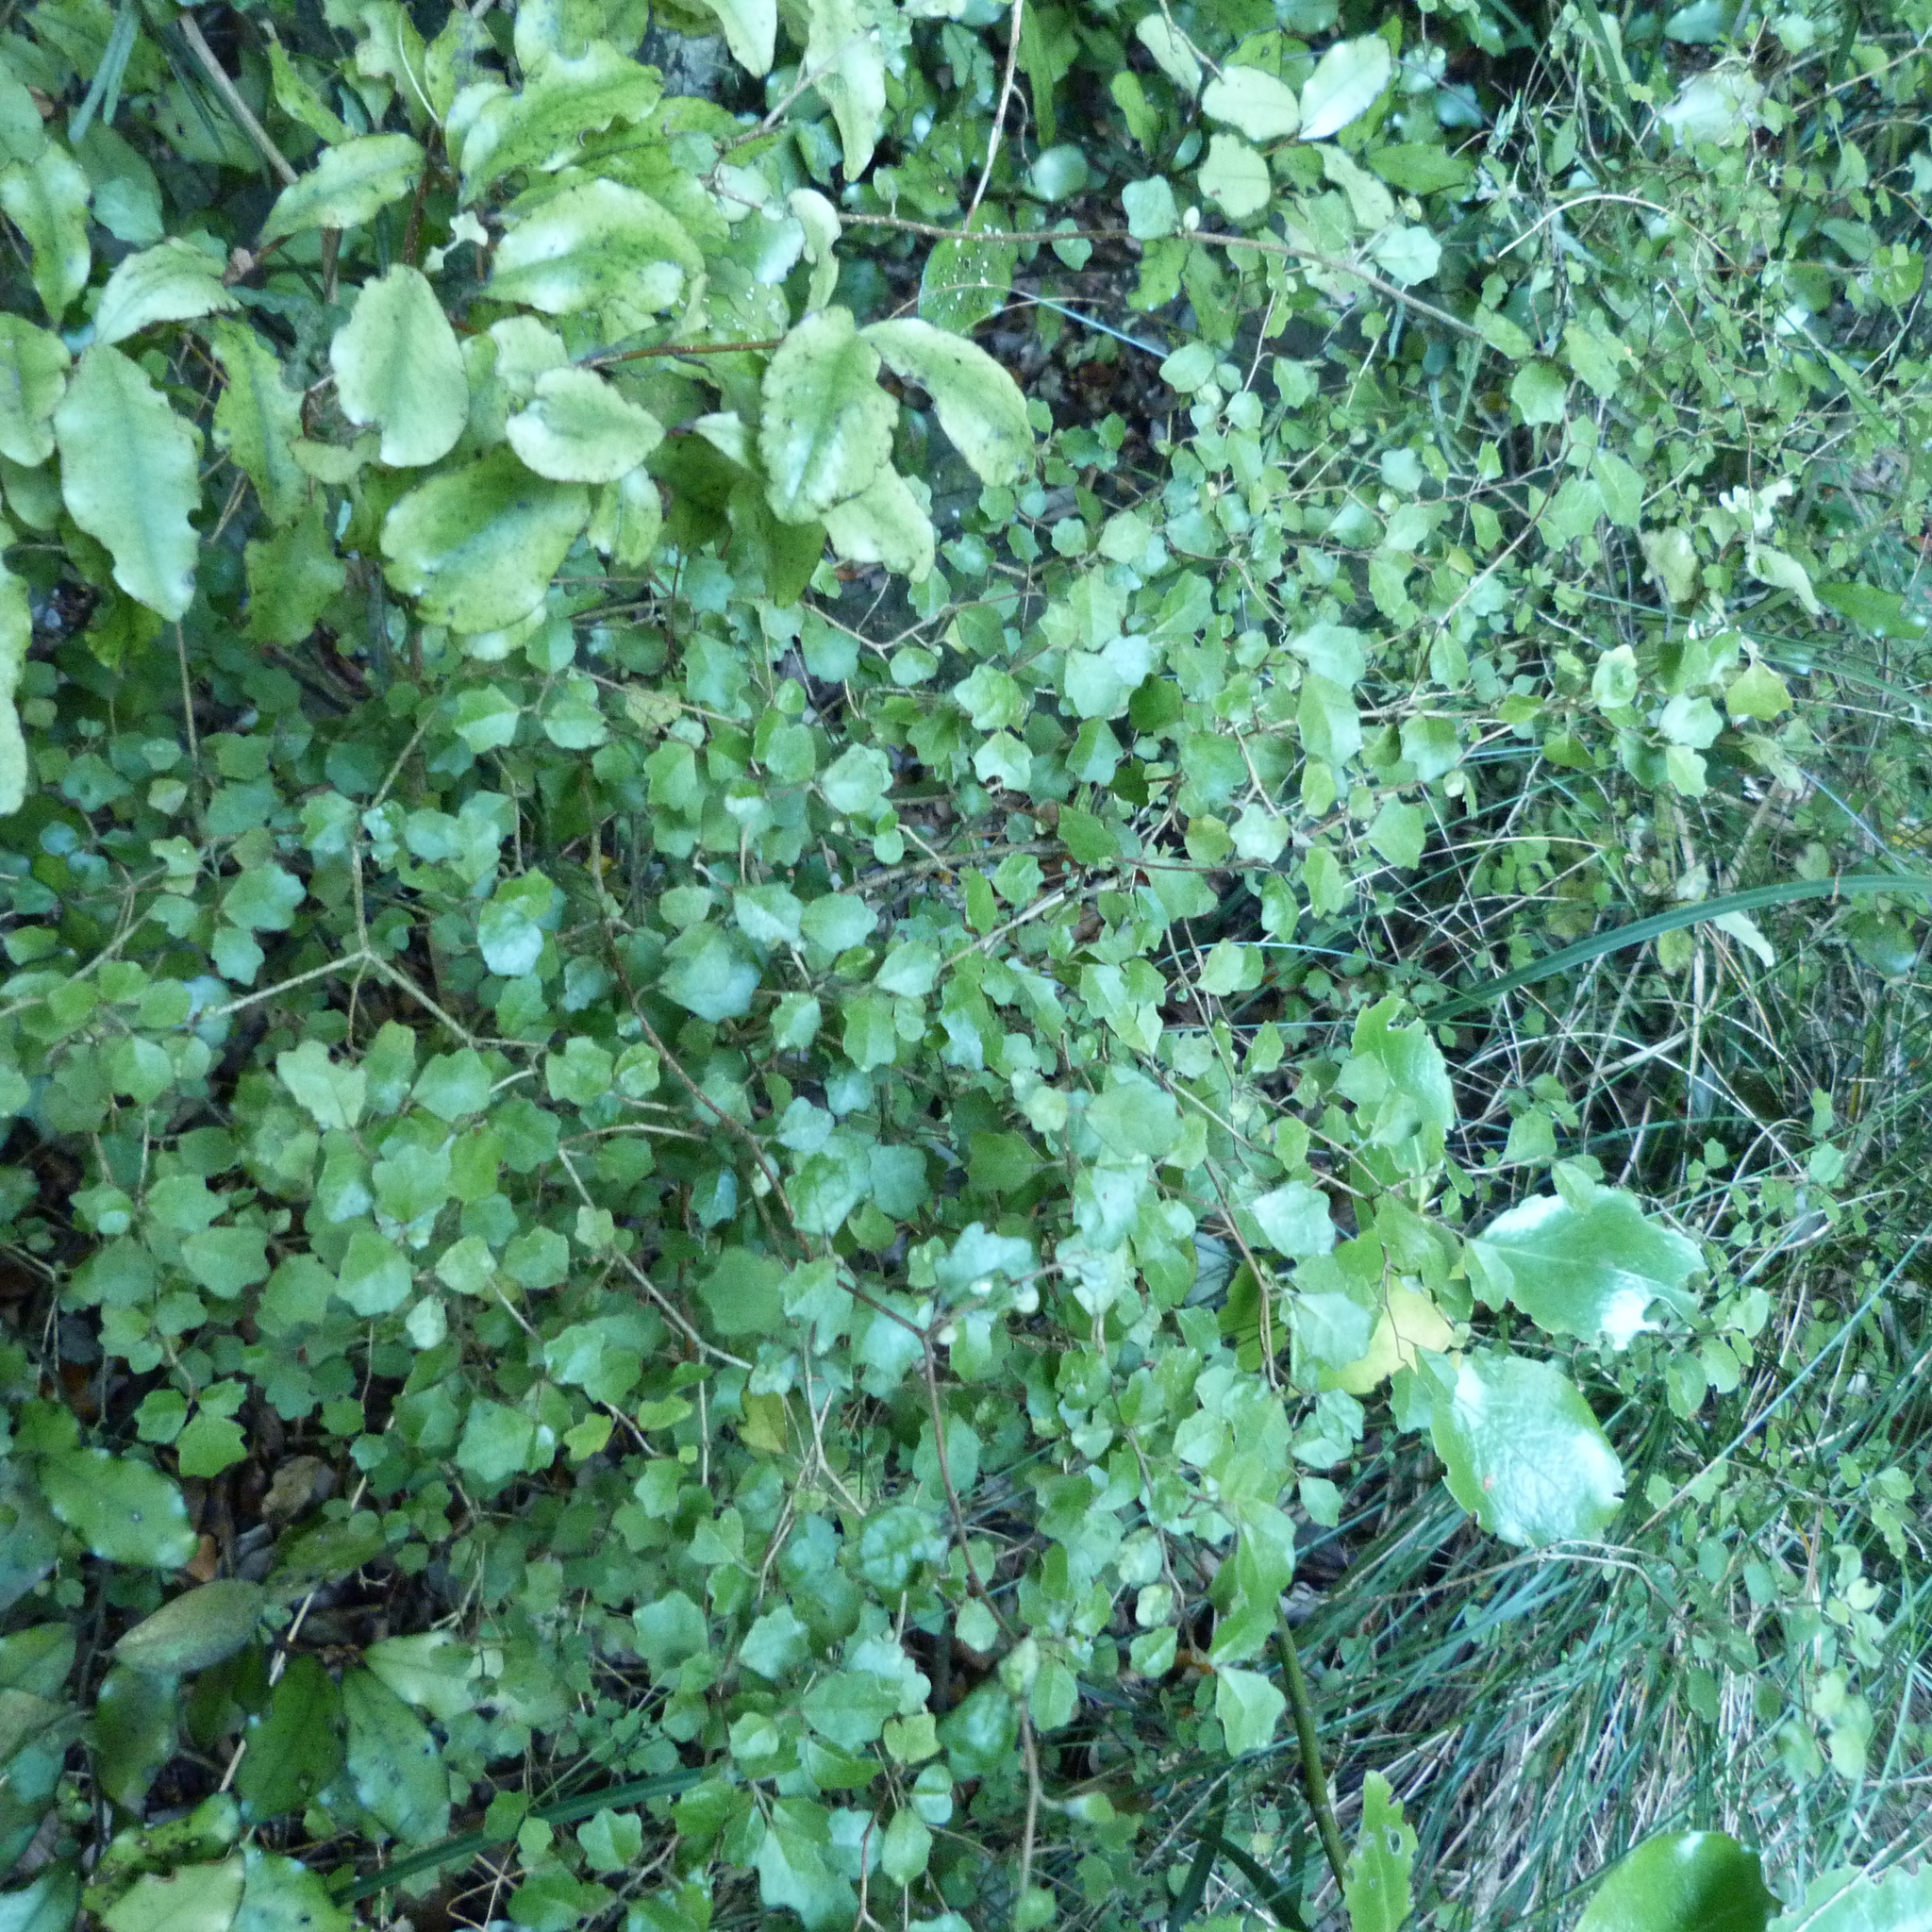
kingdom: Plantae
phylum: Tracheophyta
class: Magnoliopsida
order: Apiales
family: Pennantiaceae
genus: Pennantia
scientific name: Pennantia corymbosa
